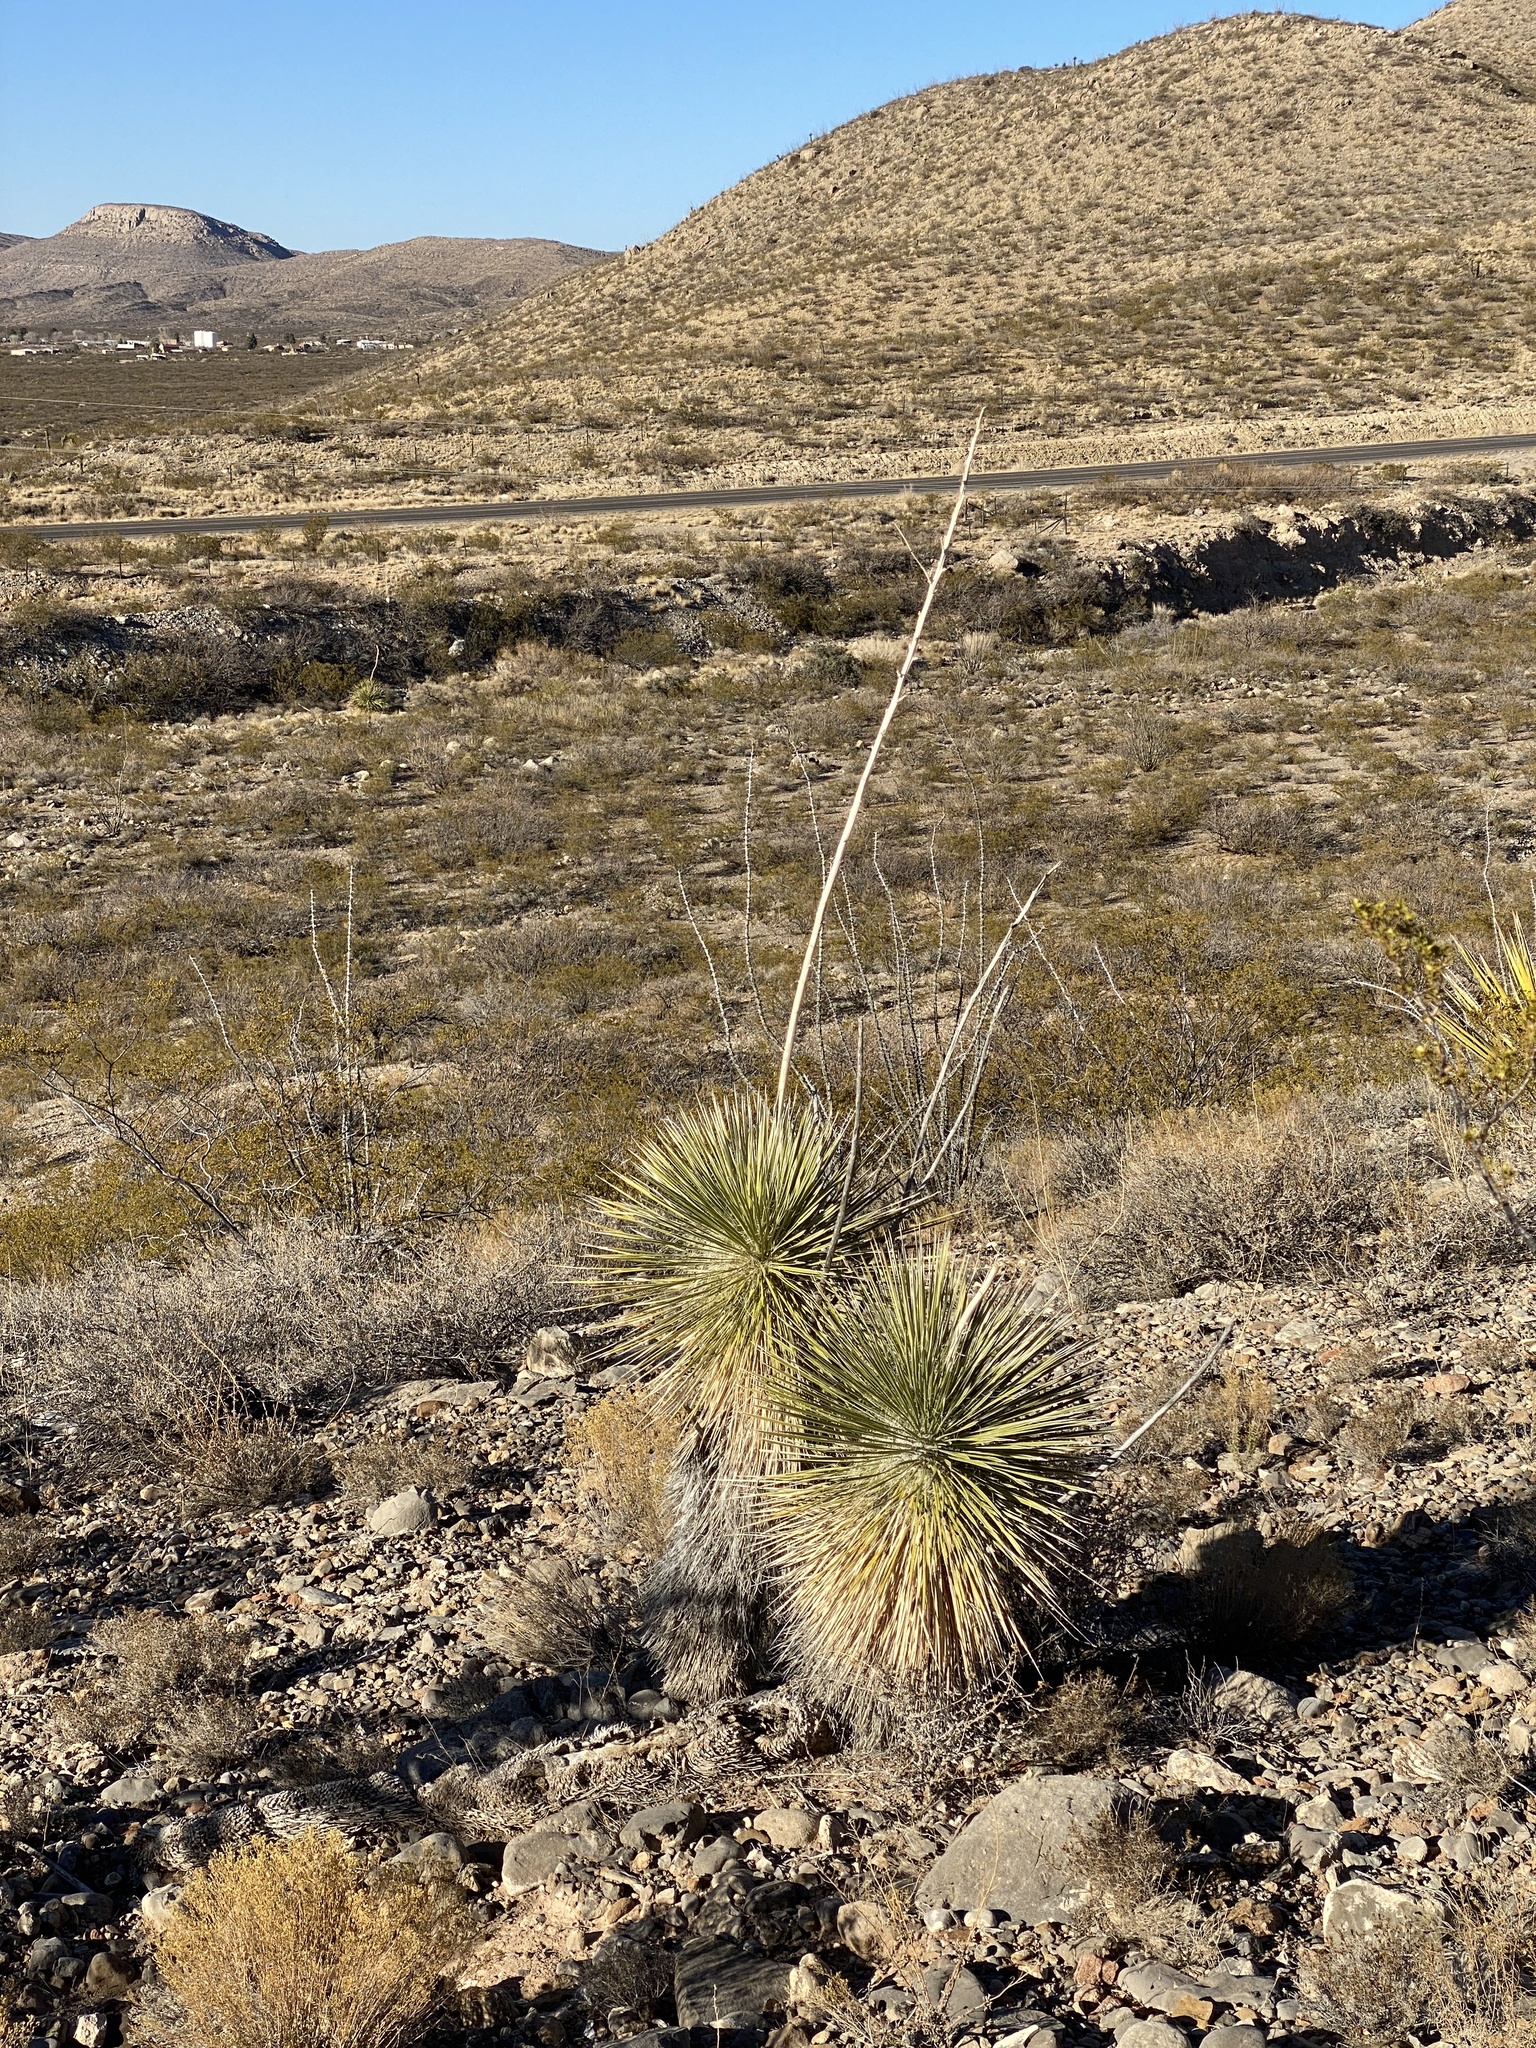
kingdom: Plantae
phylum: Tracheophyta
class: Liliopsida
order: Asparagales
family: Asparagaceae
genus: Yucca
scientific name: Yucca elata
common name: Palmella
